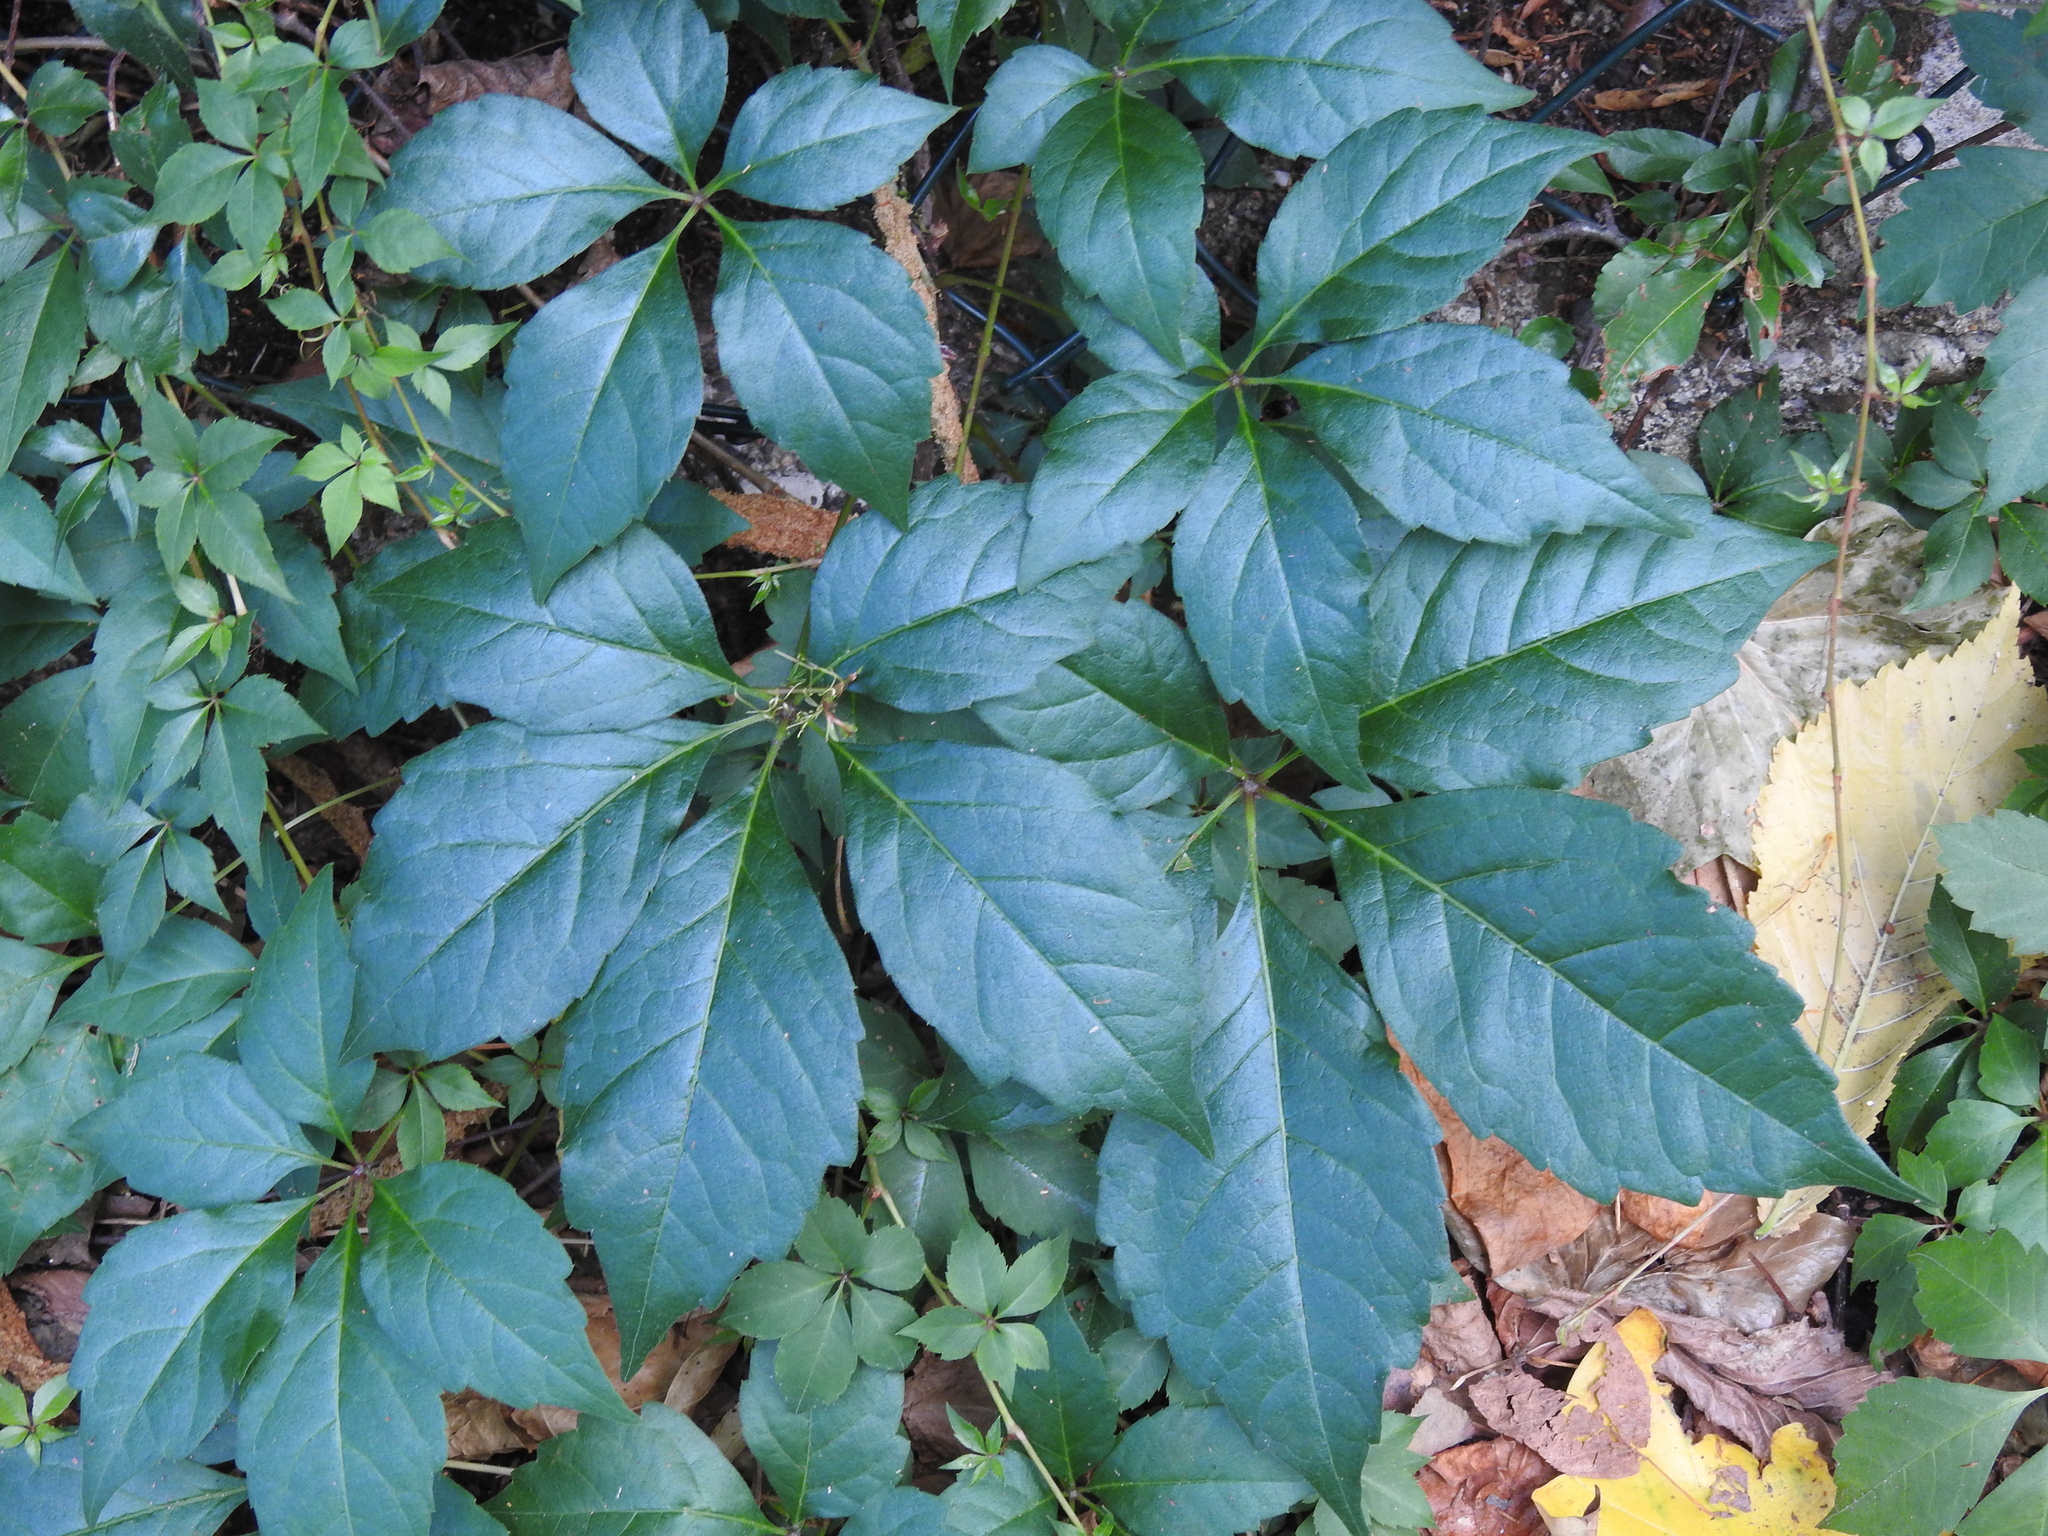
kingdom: Plantae
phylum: Tracheophyta
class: Magnoliopsida
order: Vitales
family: Vitaceae
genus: Parthenocissus
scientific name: Parthenocissus quinquefolia
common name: Virginia-creeper
